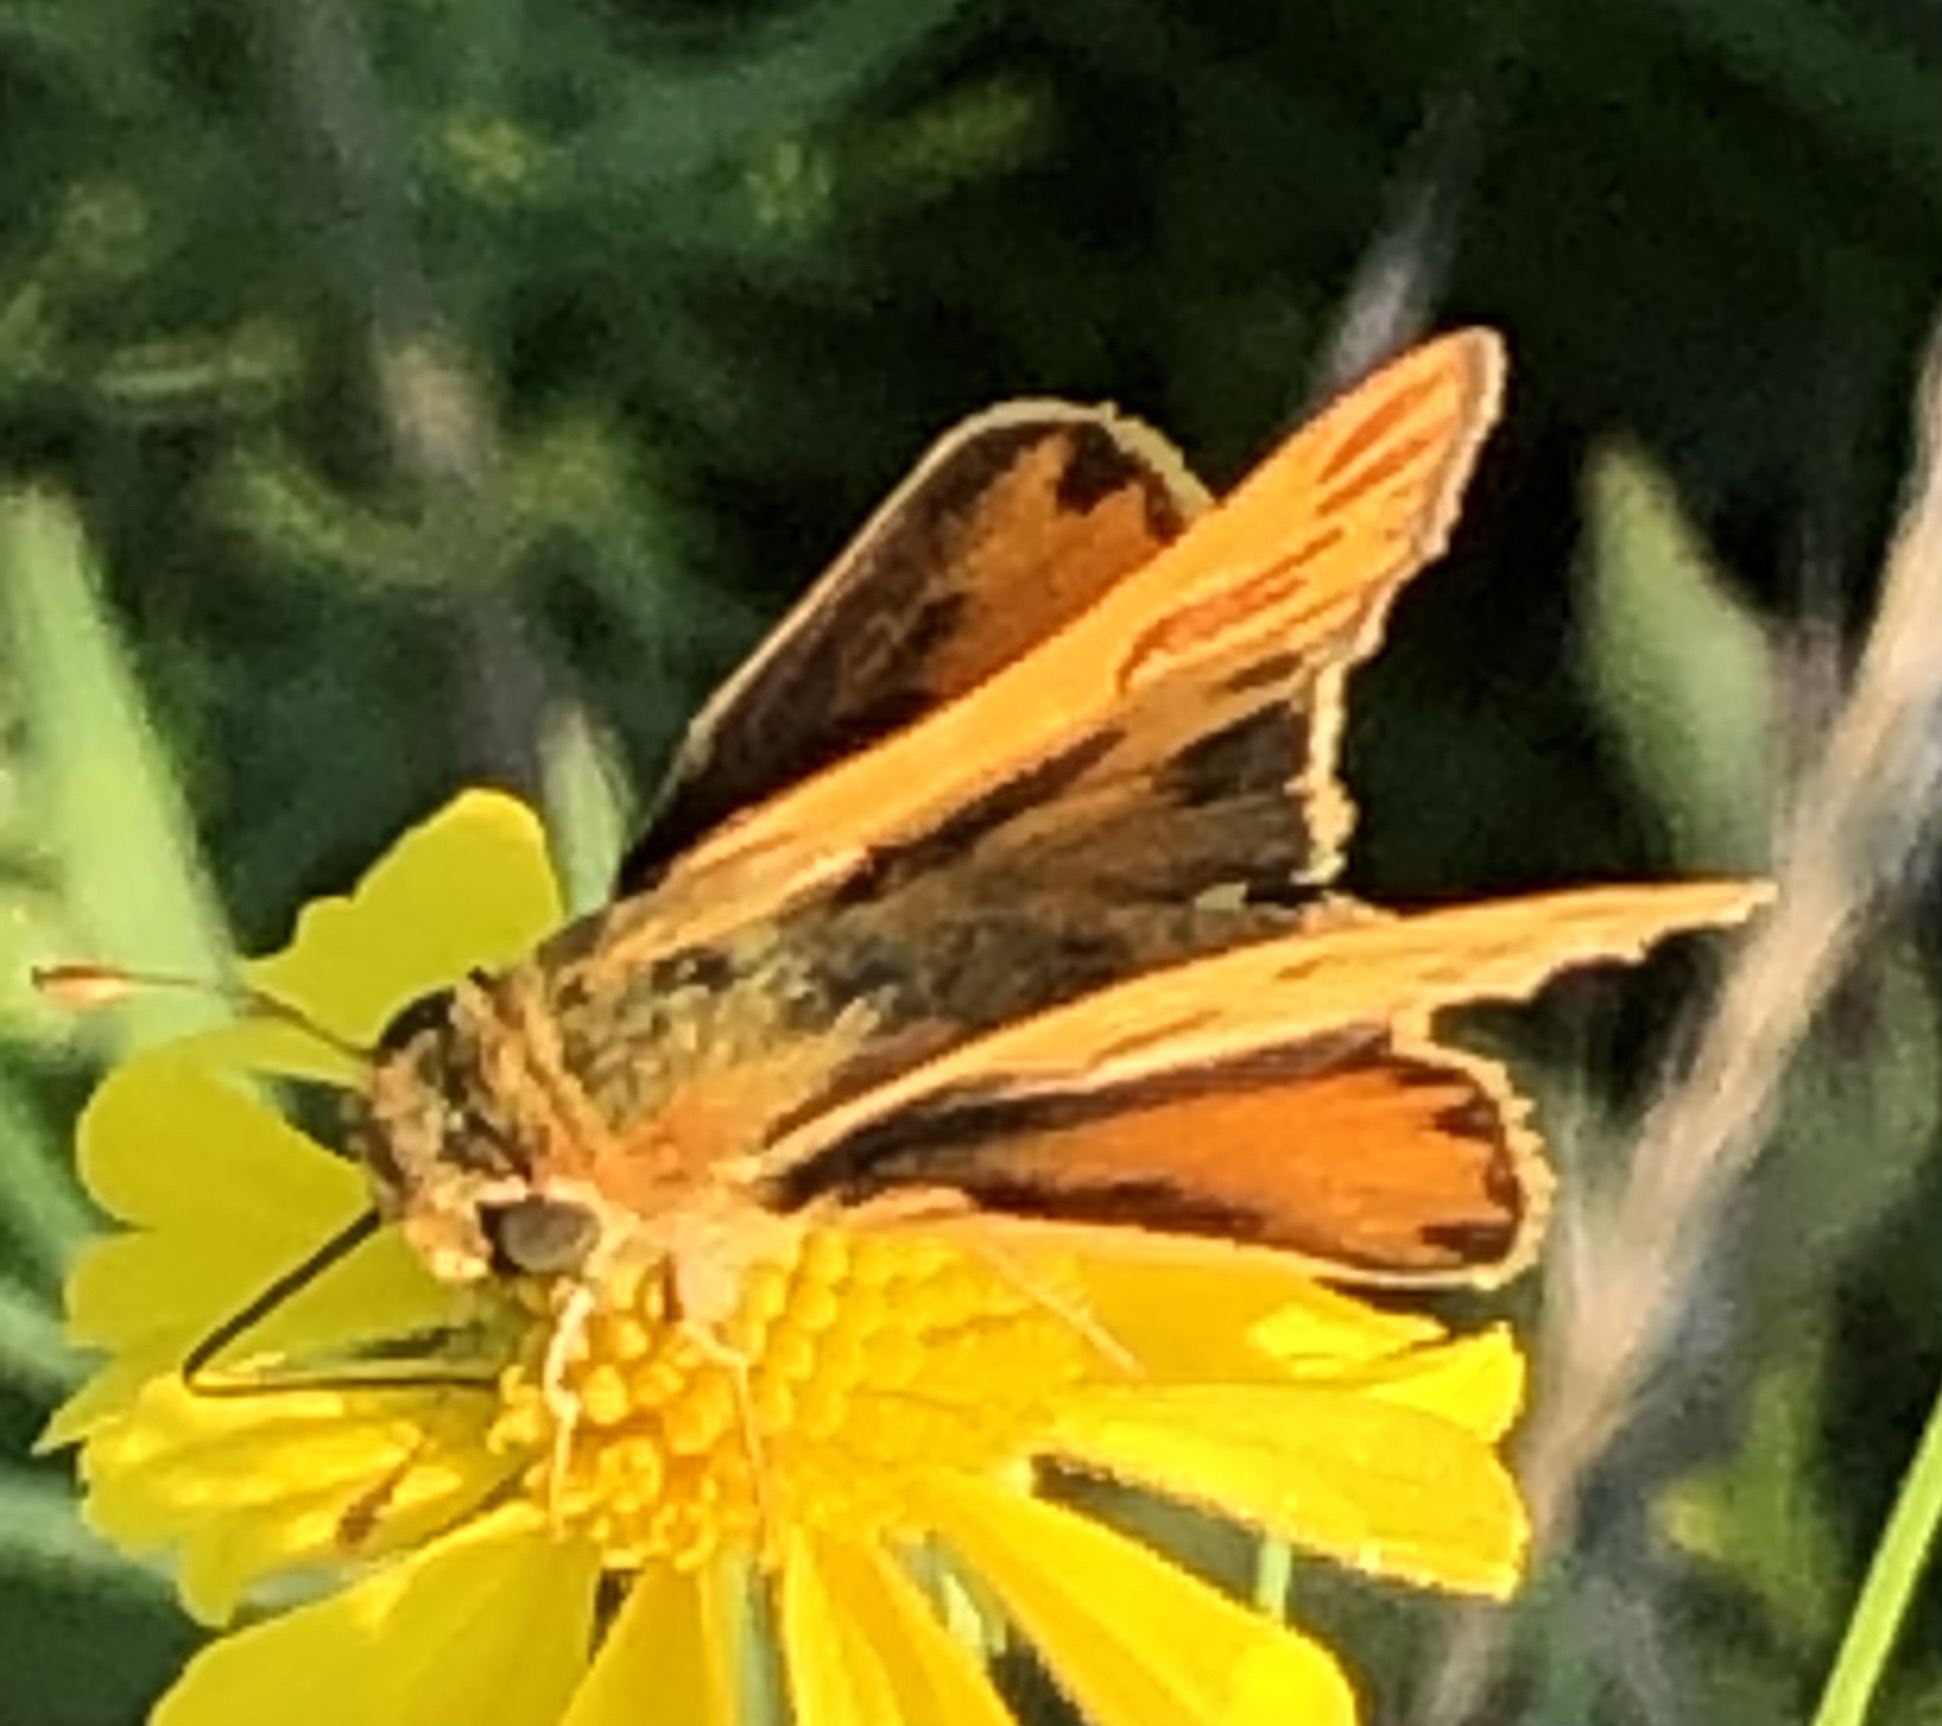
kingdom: Animalia
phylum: Arthropoda
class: Insecta
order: Lepidoptera
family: Hesperiidae
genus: Hylephila
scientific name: Hylephila phyleus
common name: Fiery skipper
